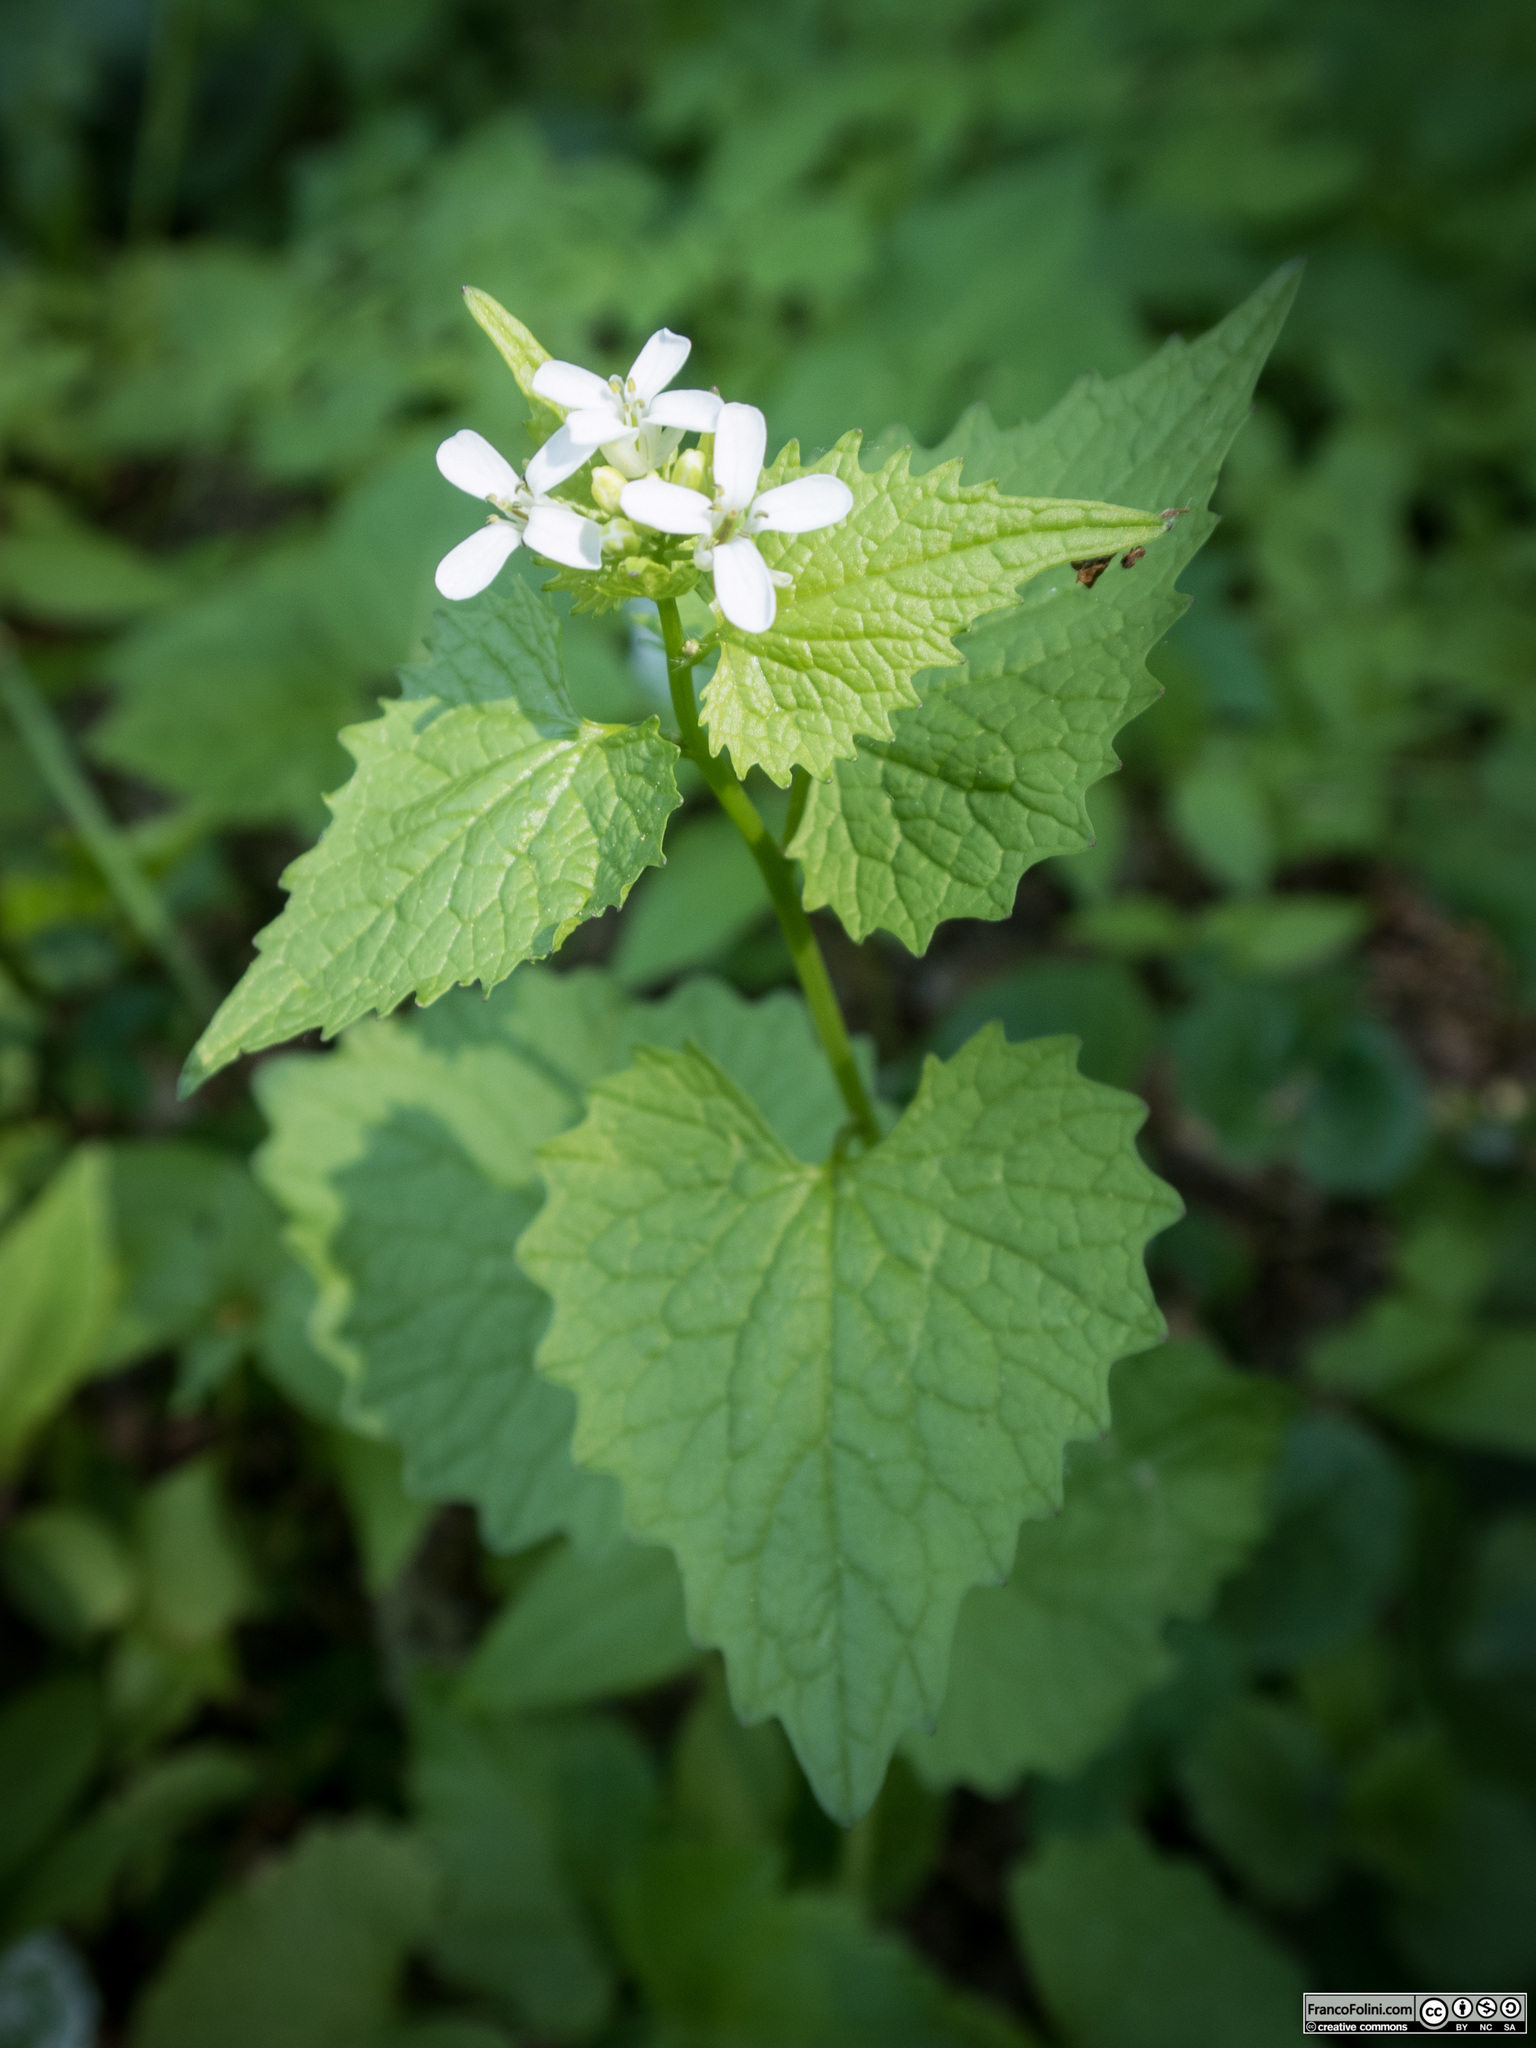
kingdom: Plantae
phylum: Tracheophyta
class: Magnoliopsida
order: Brassicales
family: Brassicaceae
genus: Alliaria
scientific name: Alliaria petiolata
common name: Garlic mustard
